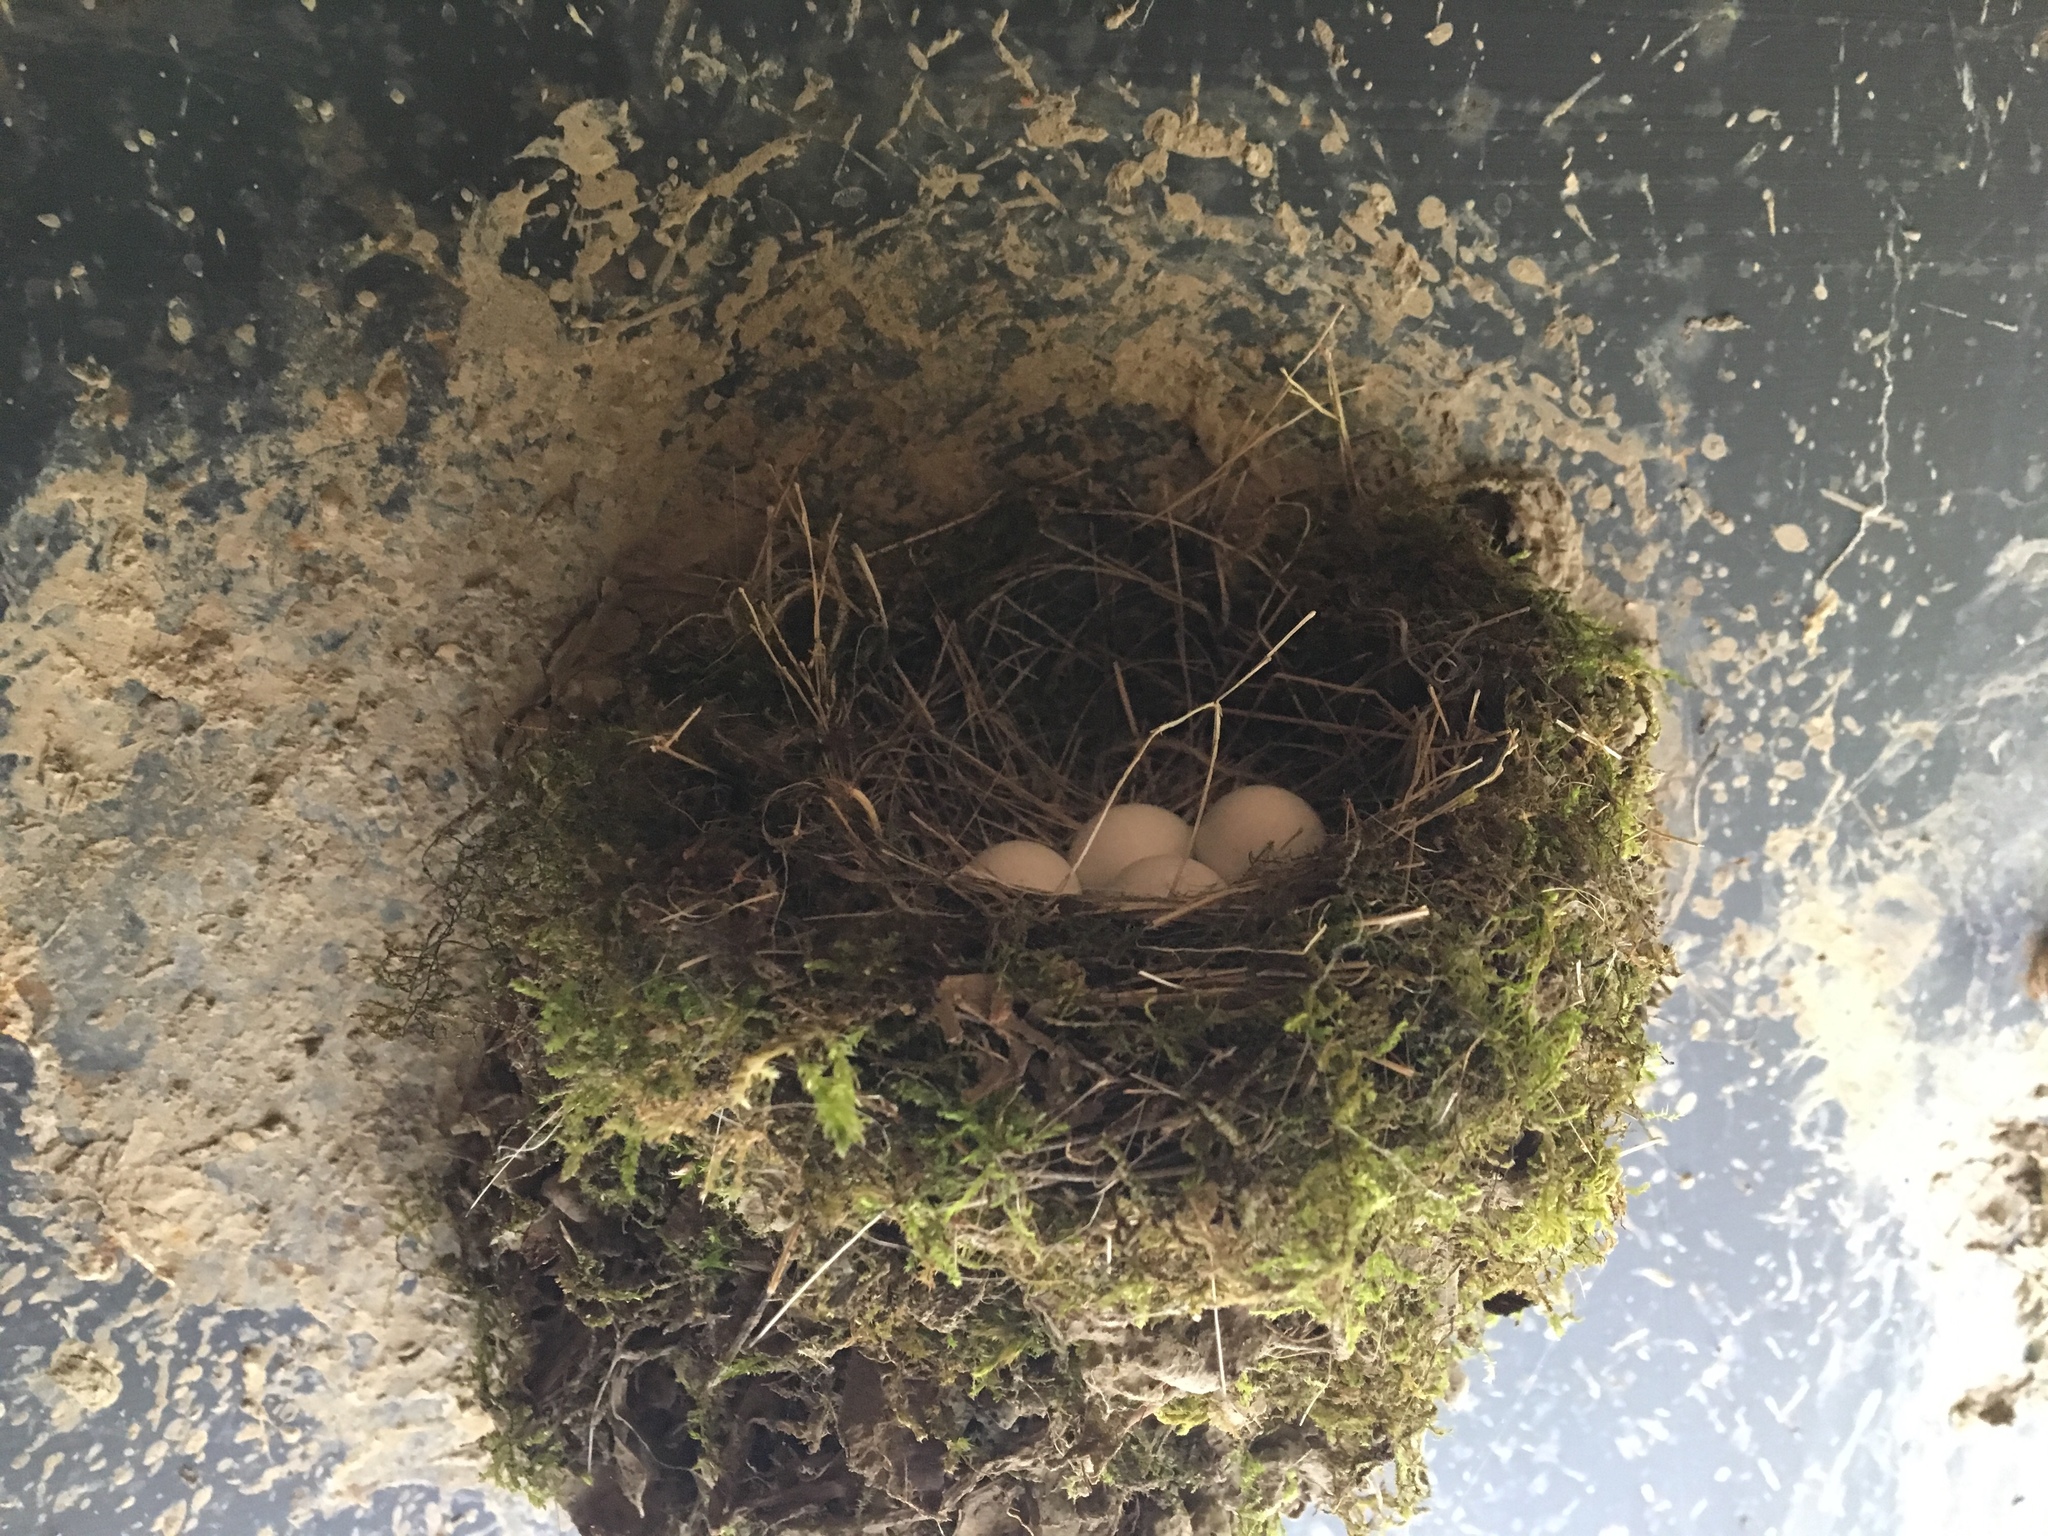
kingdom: Animalia
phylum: Chordata
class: Aves
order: Passeriformes
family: Tyrannidae
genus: Sayornis
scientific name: Sayornis phoebe
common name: Eastern phoebe
